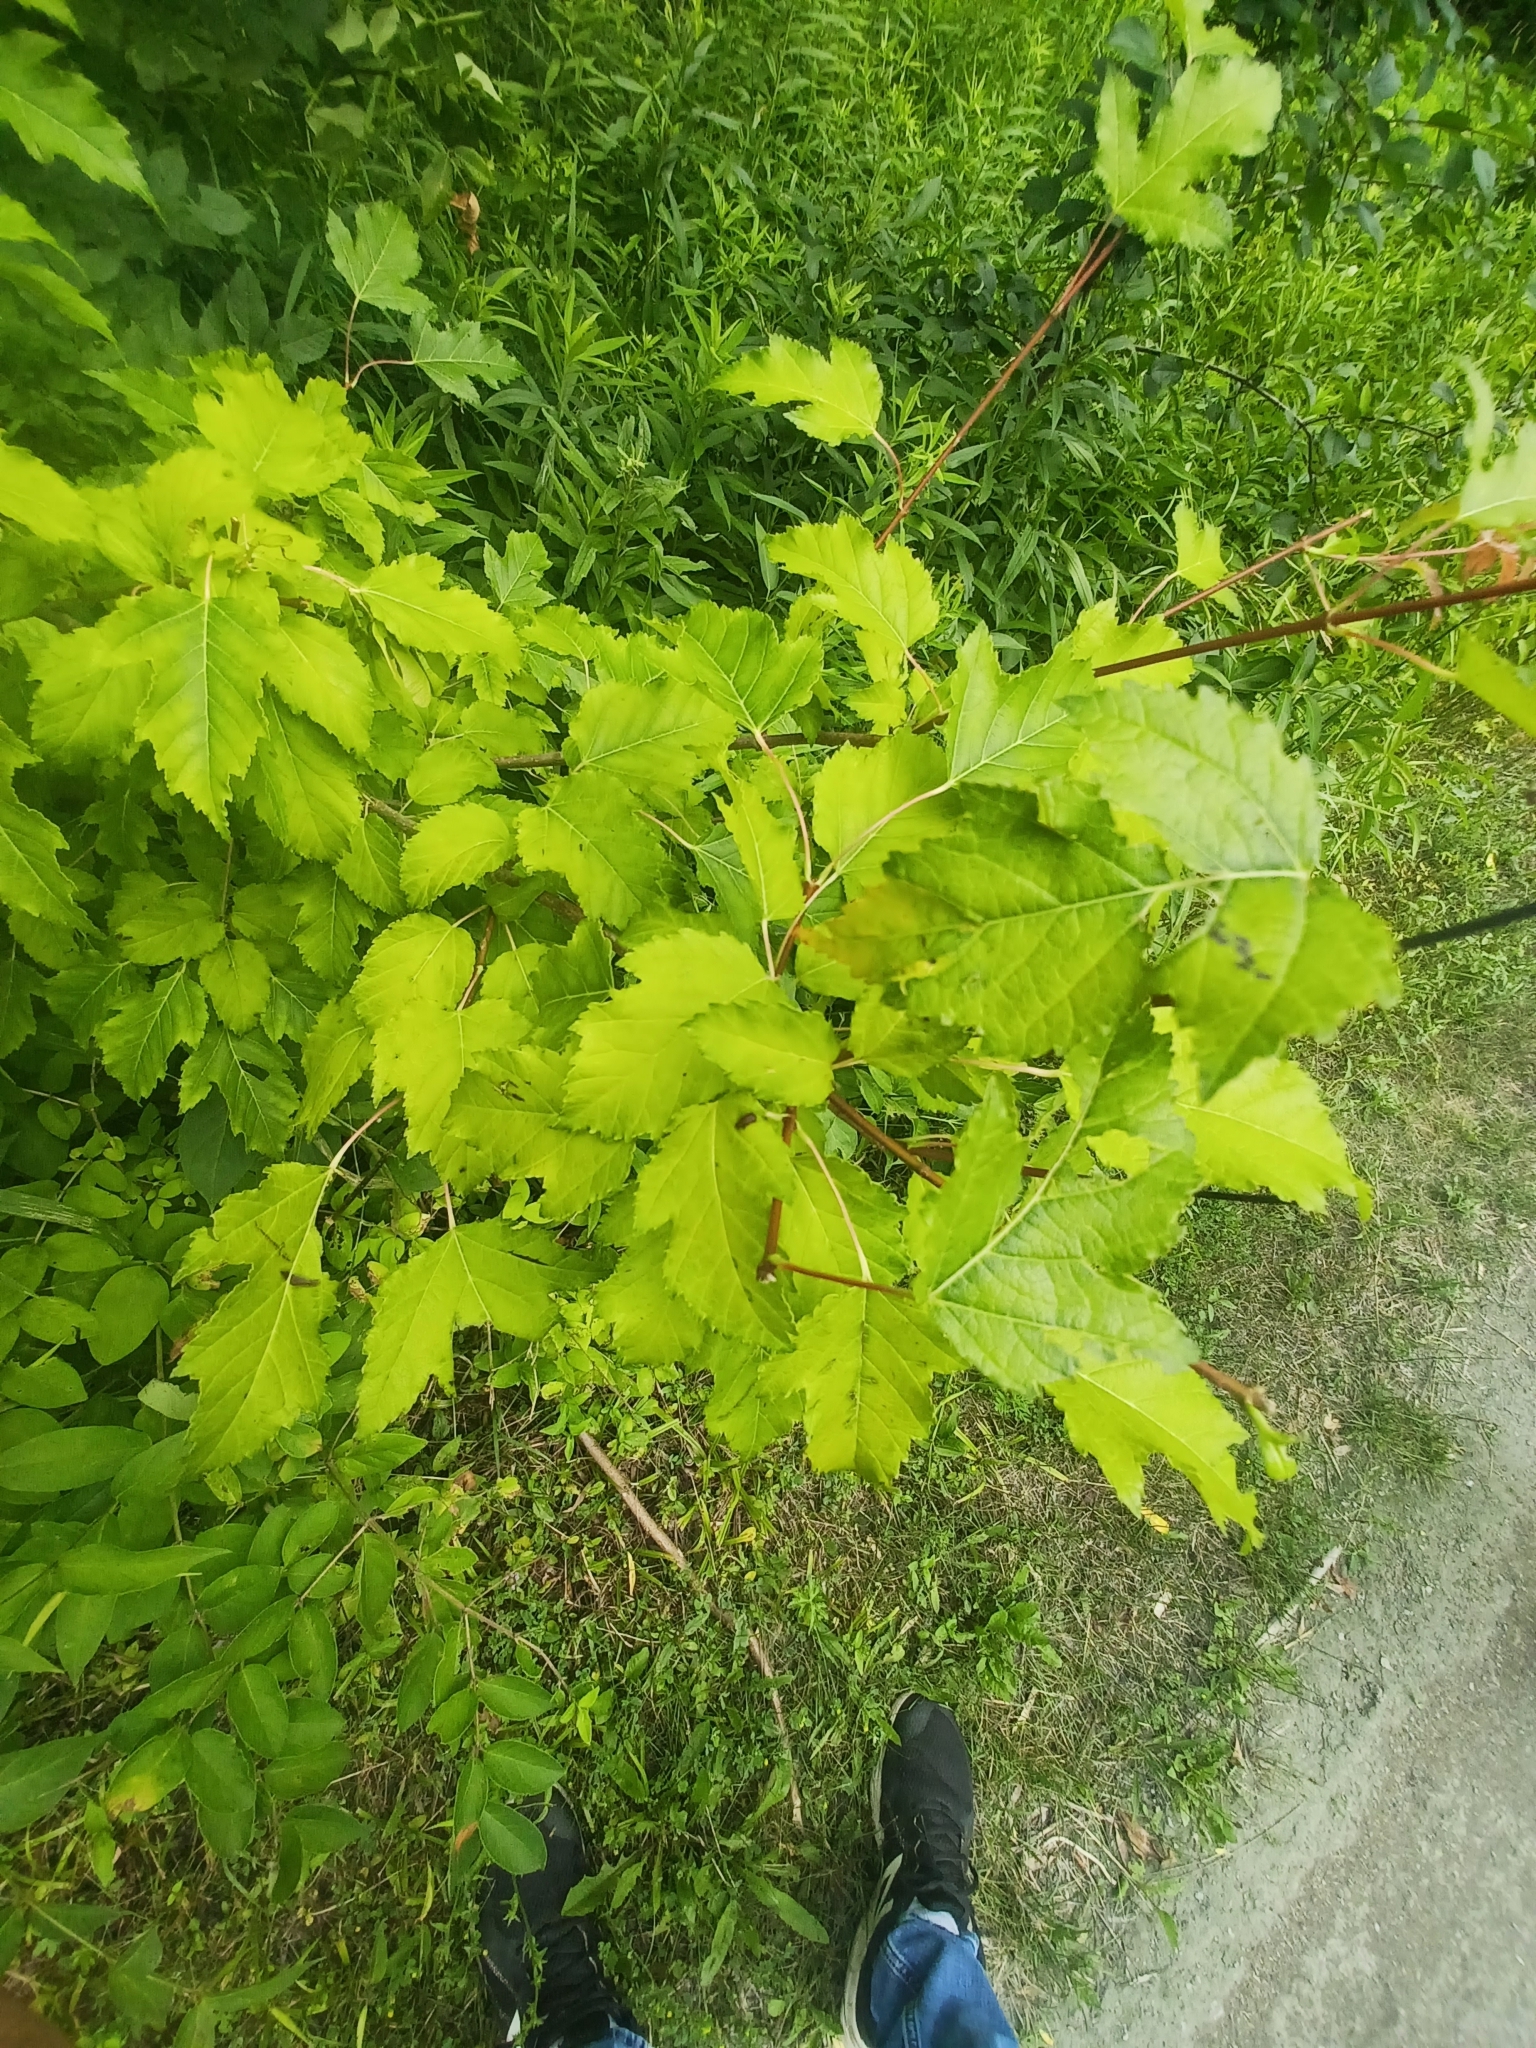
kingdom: Plantae
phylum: Tracheophyta
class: Magnoliopsida
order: Sapindales
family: Sapindaceae
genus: Acer
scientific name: Acer tataricum
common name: Tartar maple
